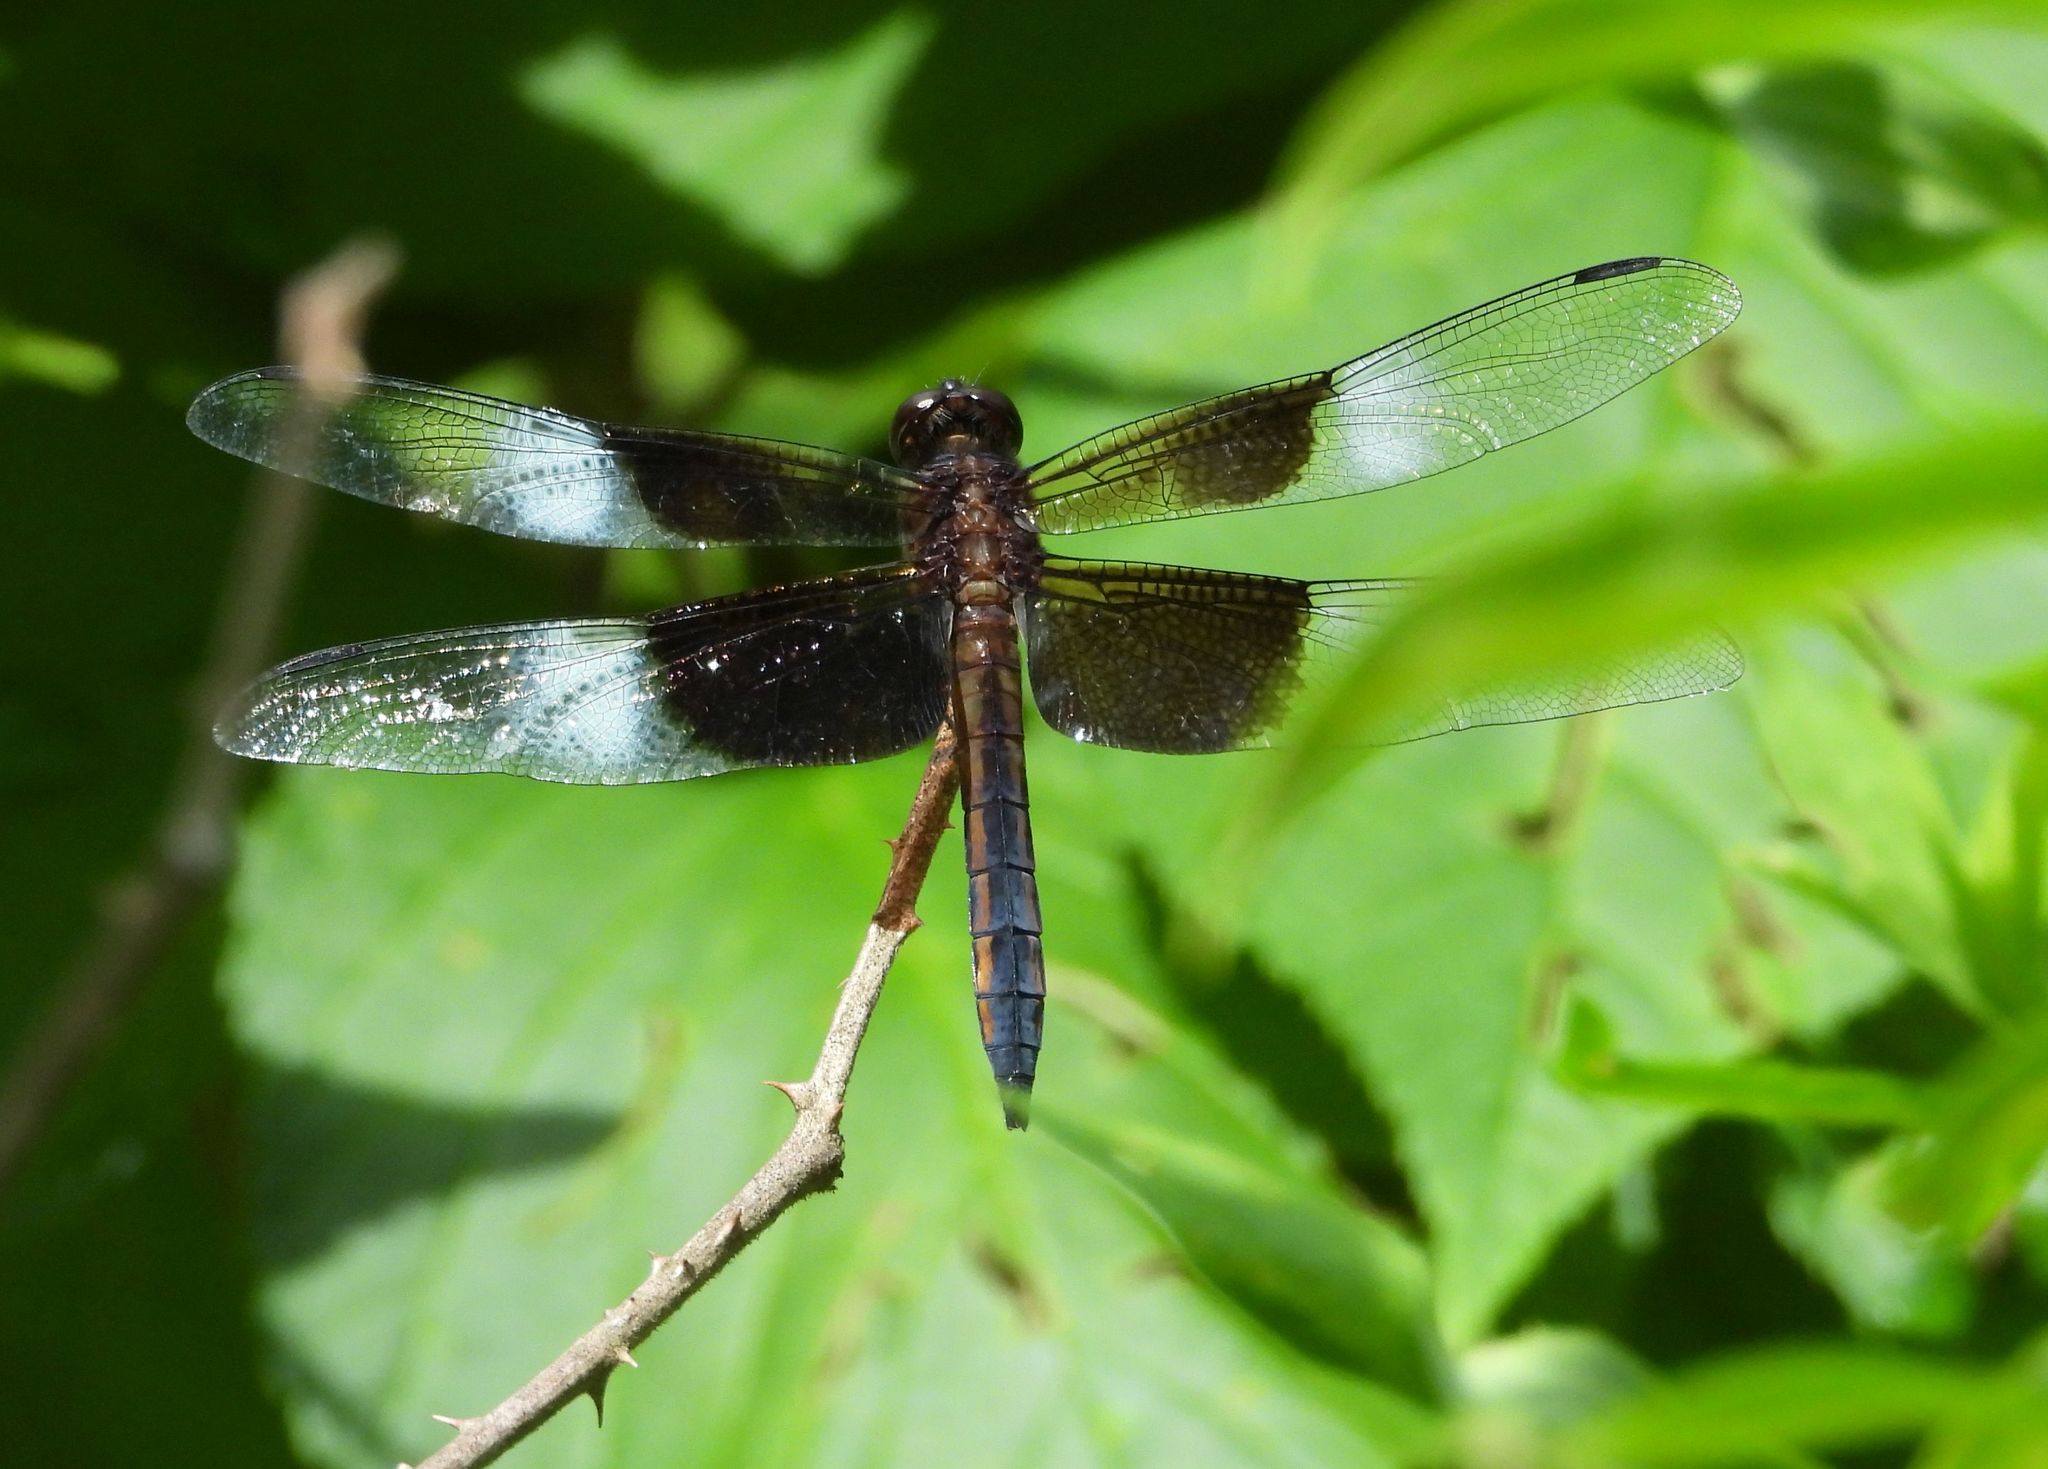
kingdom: Animalia
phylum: Arthropoda
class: Insecta
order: Odonata
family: Libellulidae
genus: Libellula
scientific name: Libellula luctuosa
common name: Widow skimmer
